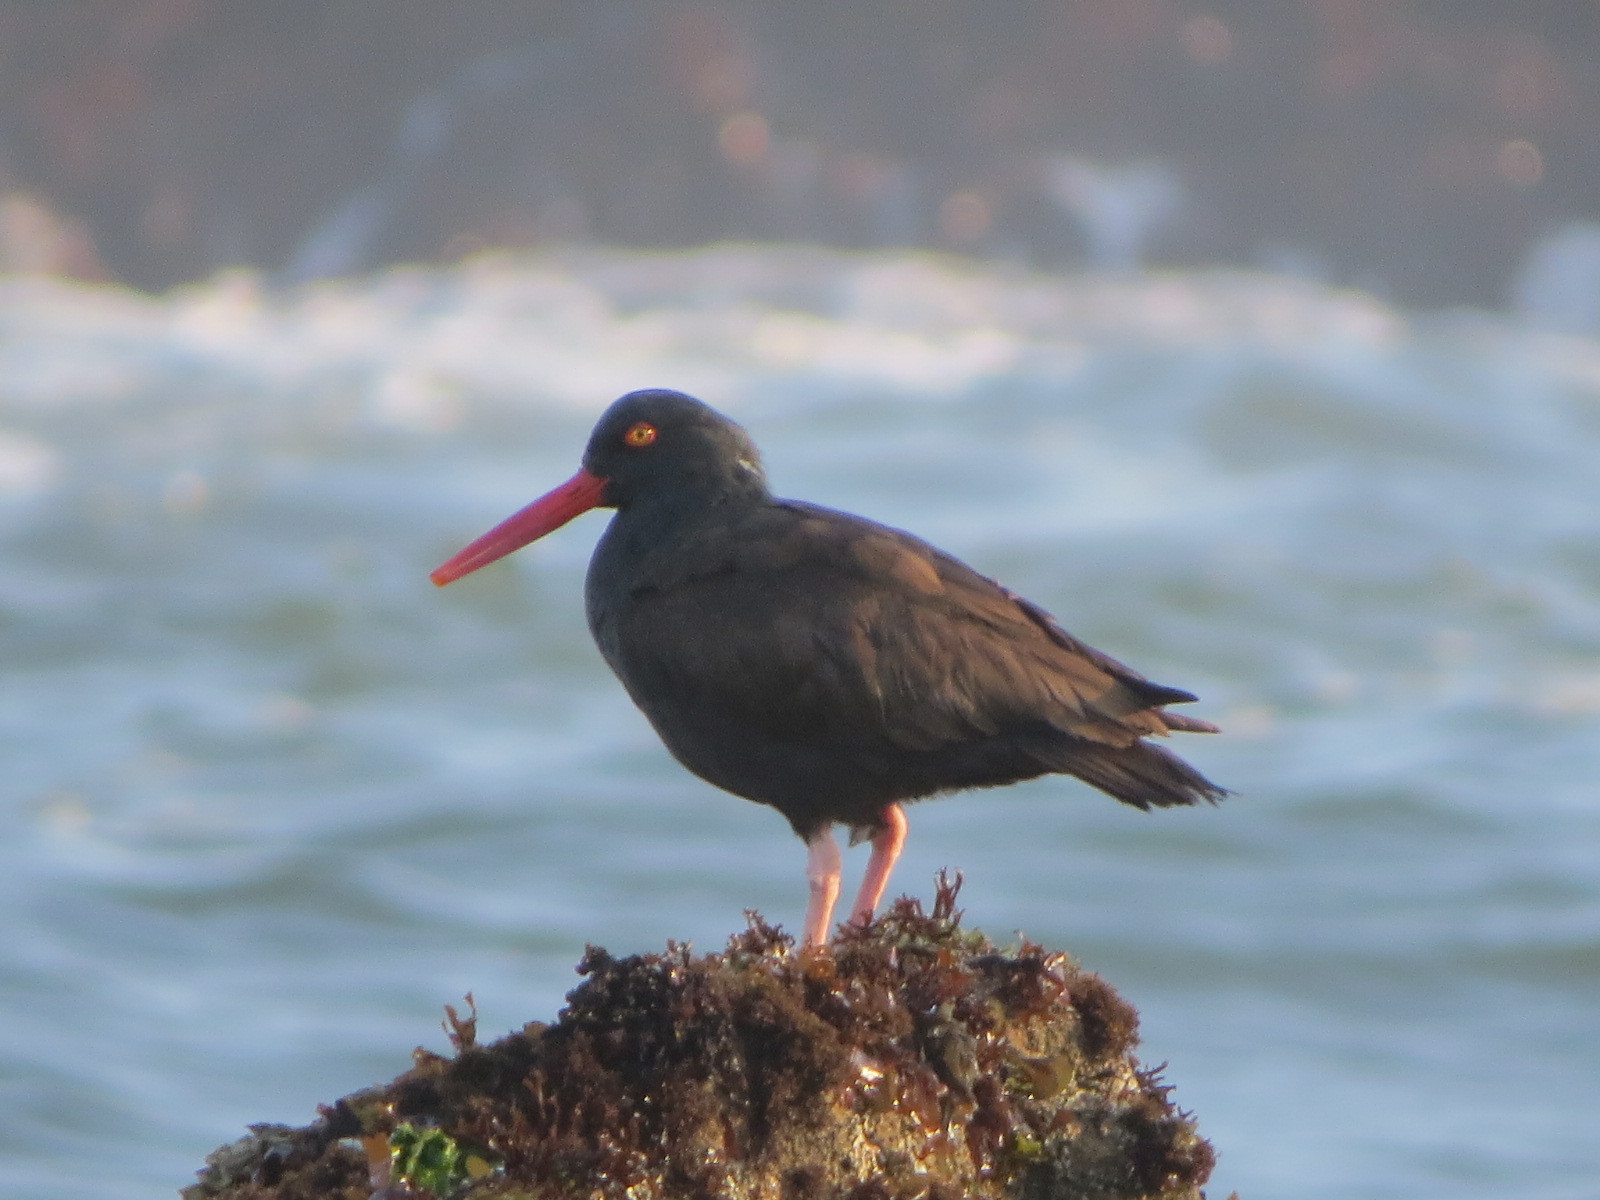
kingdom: Animalia
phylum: Chordata
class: Aves
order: Charadriiformes
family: Haematopodidae
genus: Haematopus
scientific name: Haematopus bachmani
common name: Black oystercatcher
